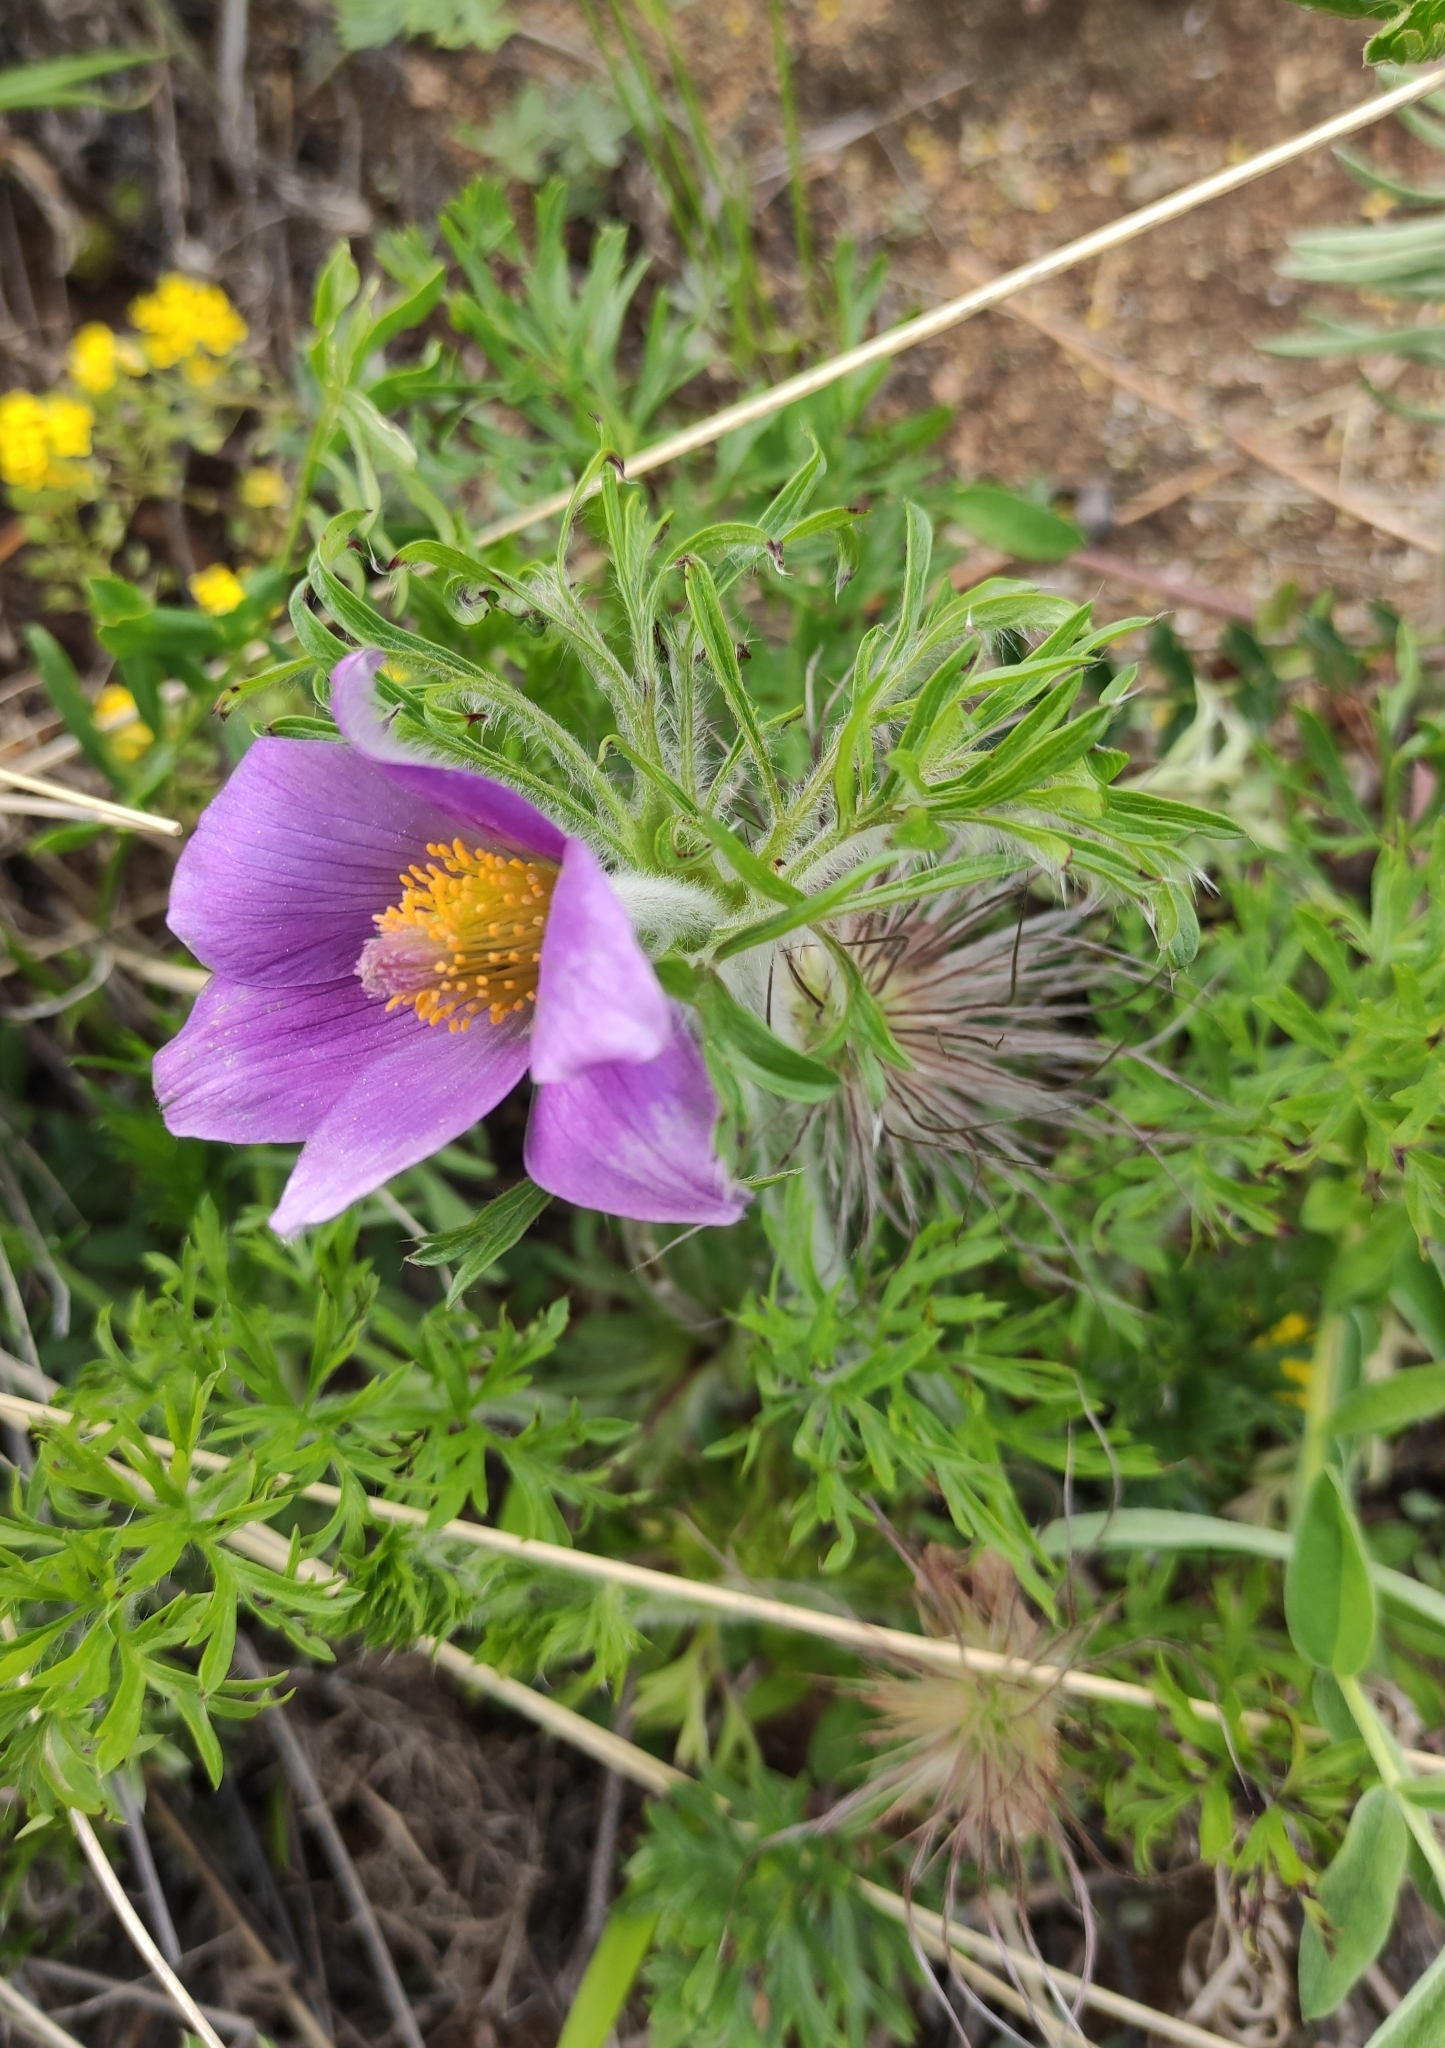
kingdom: Plantae
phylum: Tracheophyta
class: Magnoliopsida
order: Ranunculales
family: Ranunculaceae
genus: Pulsatilla
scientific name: Pulsatilla turczaninovii
